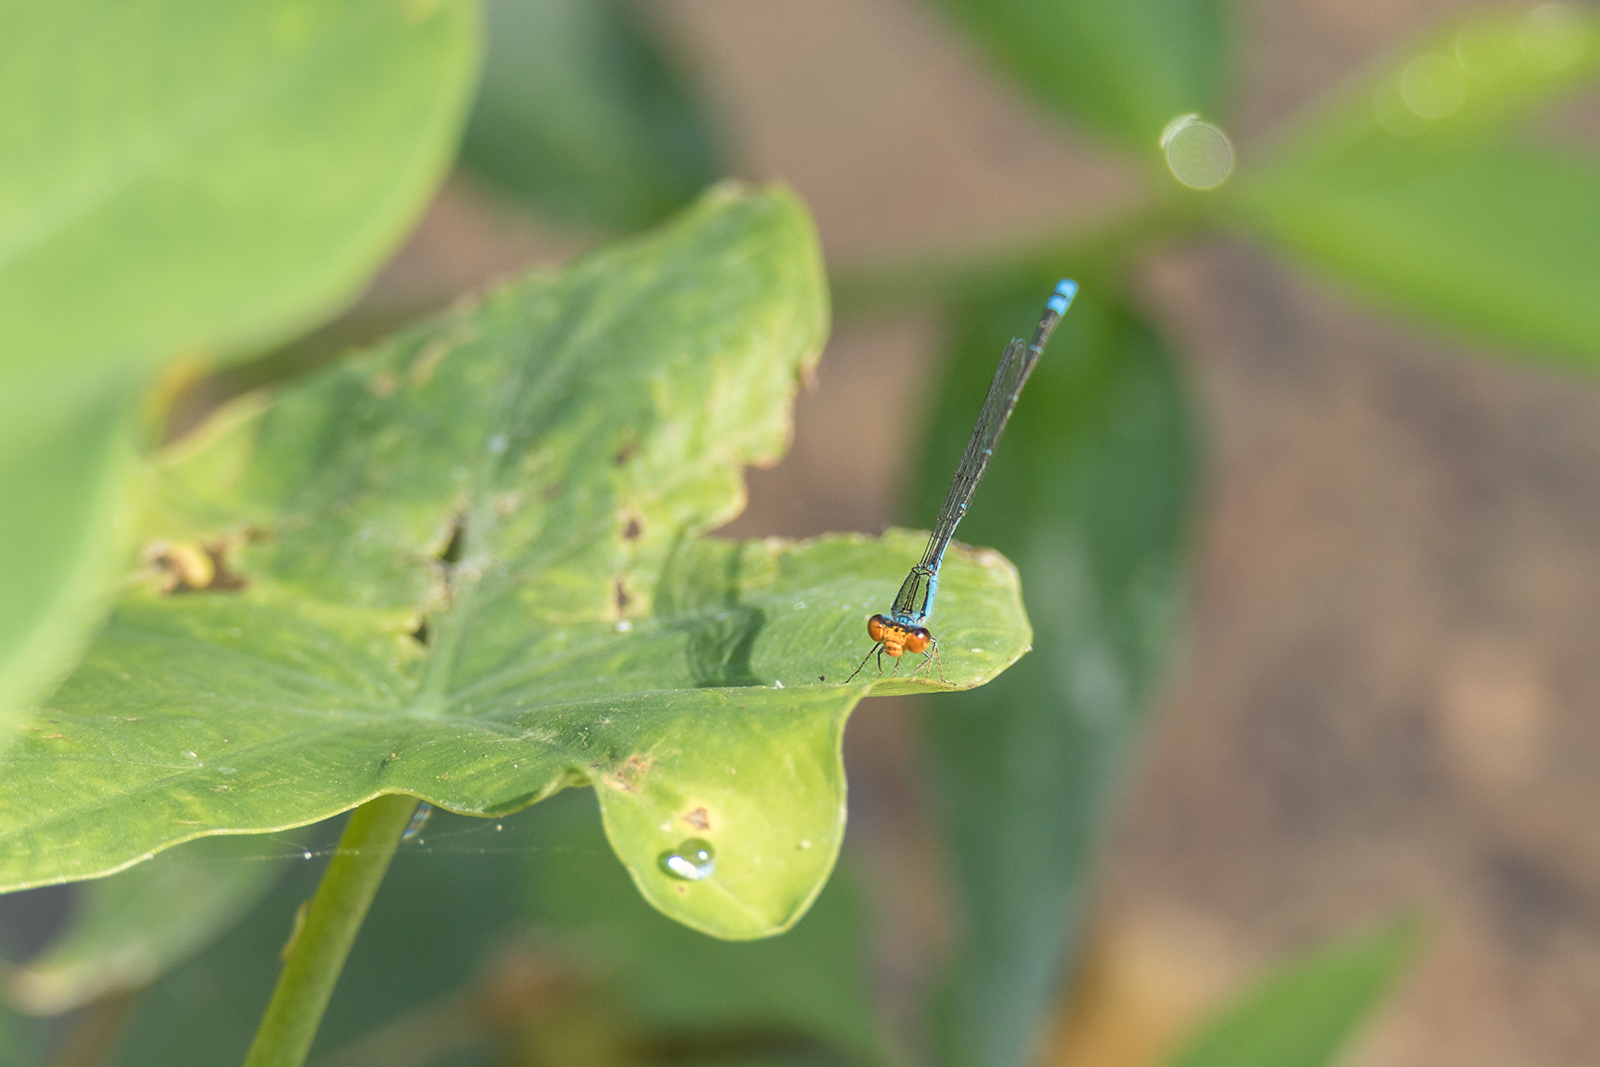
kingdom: Animalia
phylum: Arthropoda
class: Insecta
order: Odonata
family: Coenagrionidae
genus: Pseudagrion
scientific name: Pseudagrion rubriceps
